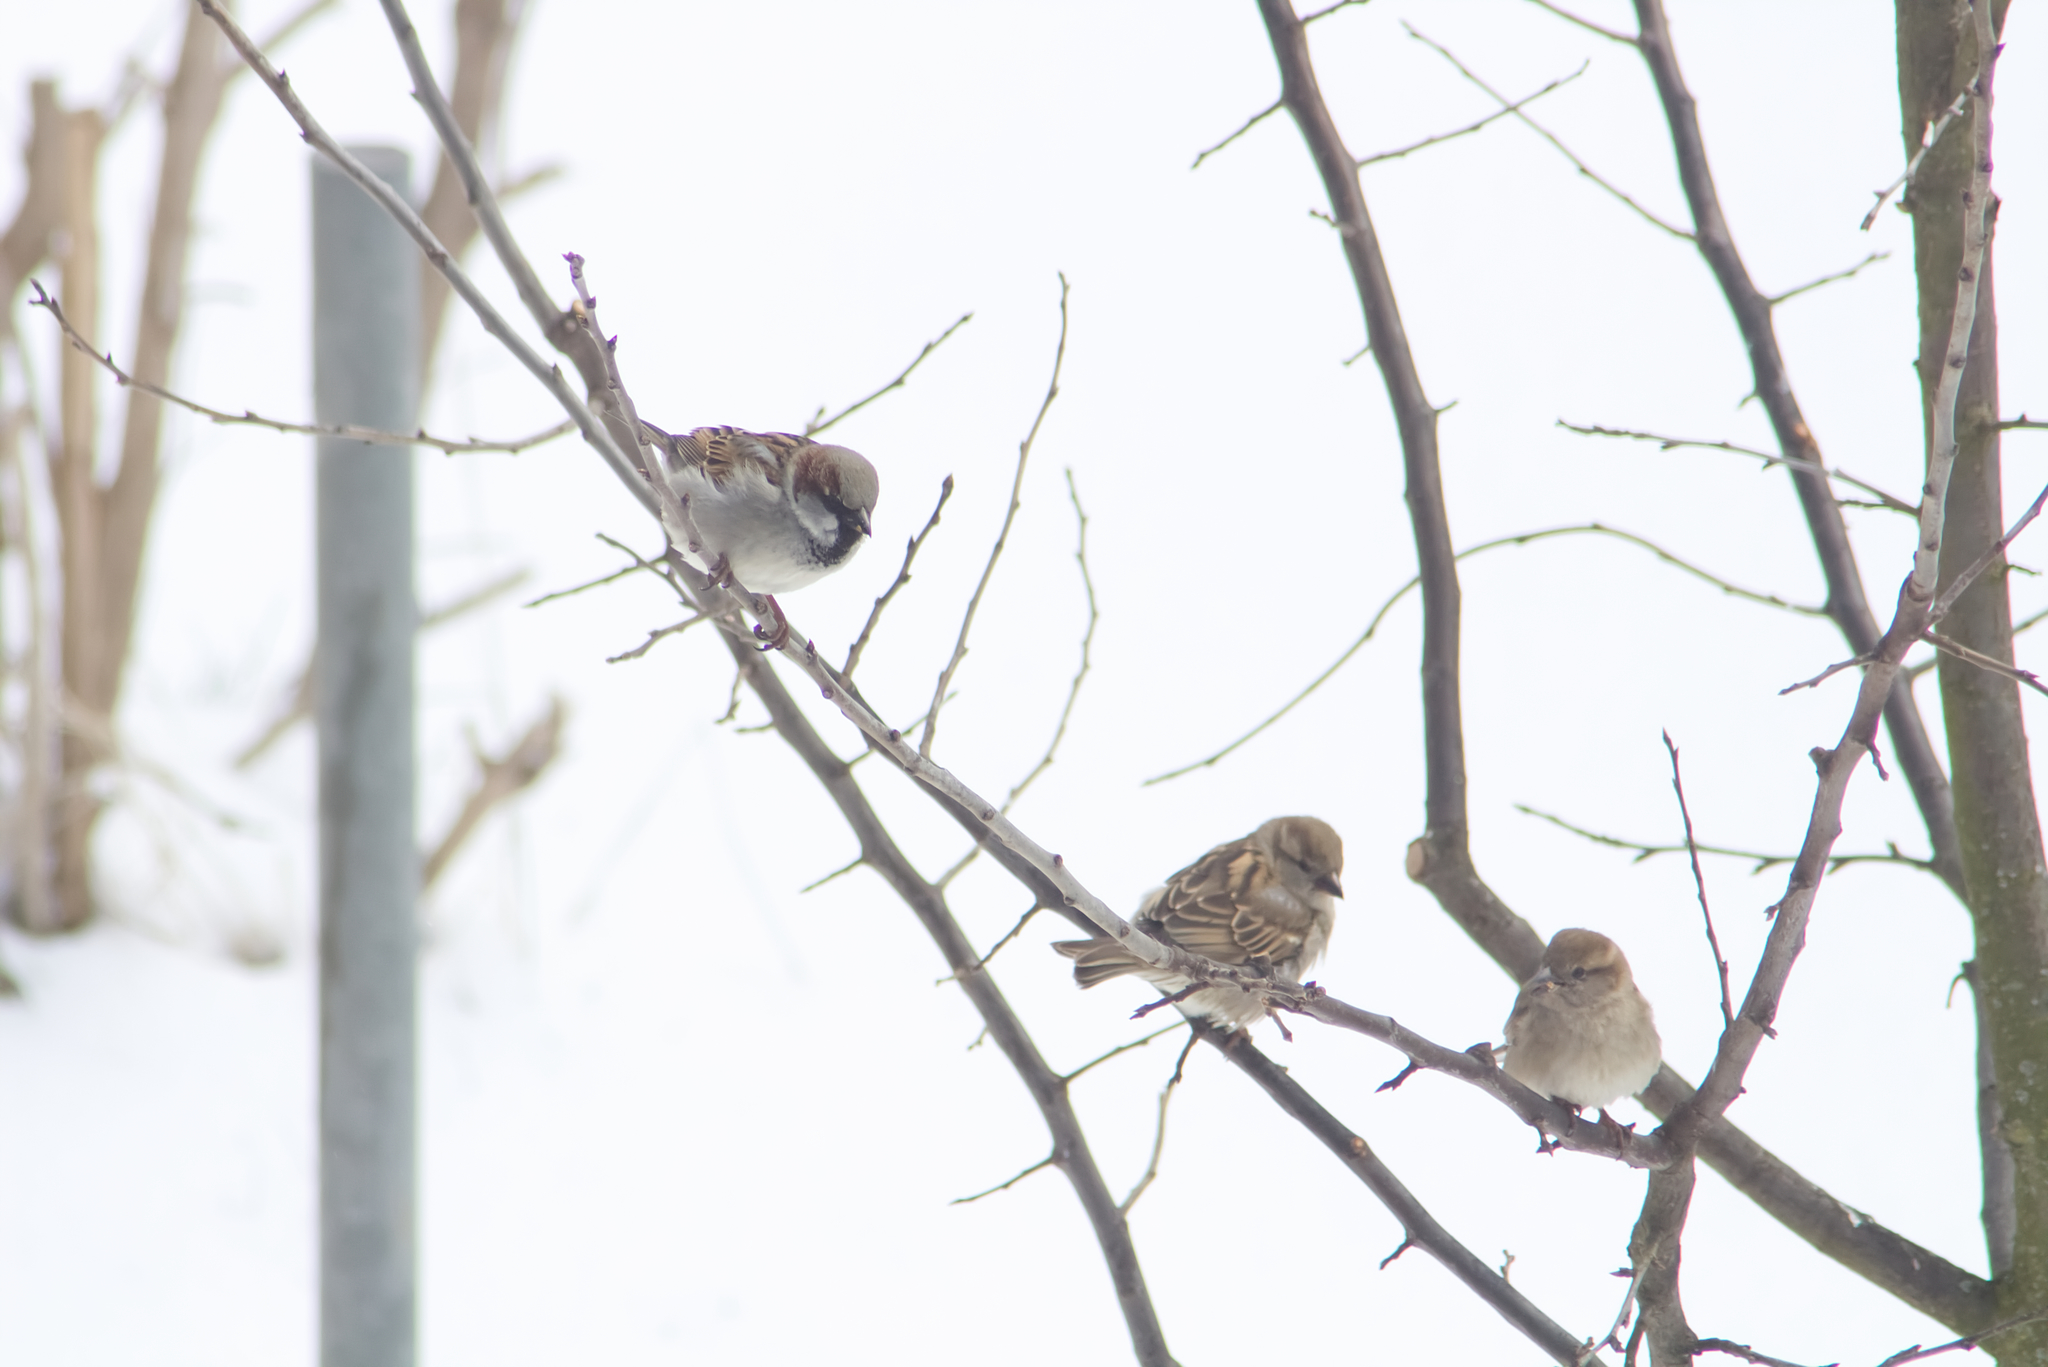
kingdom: Animalia
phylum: Chordata
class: Aves
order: Passeriformes
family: Passeridae
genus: Passer
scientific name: Passer domesticus
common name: House sparrow
